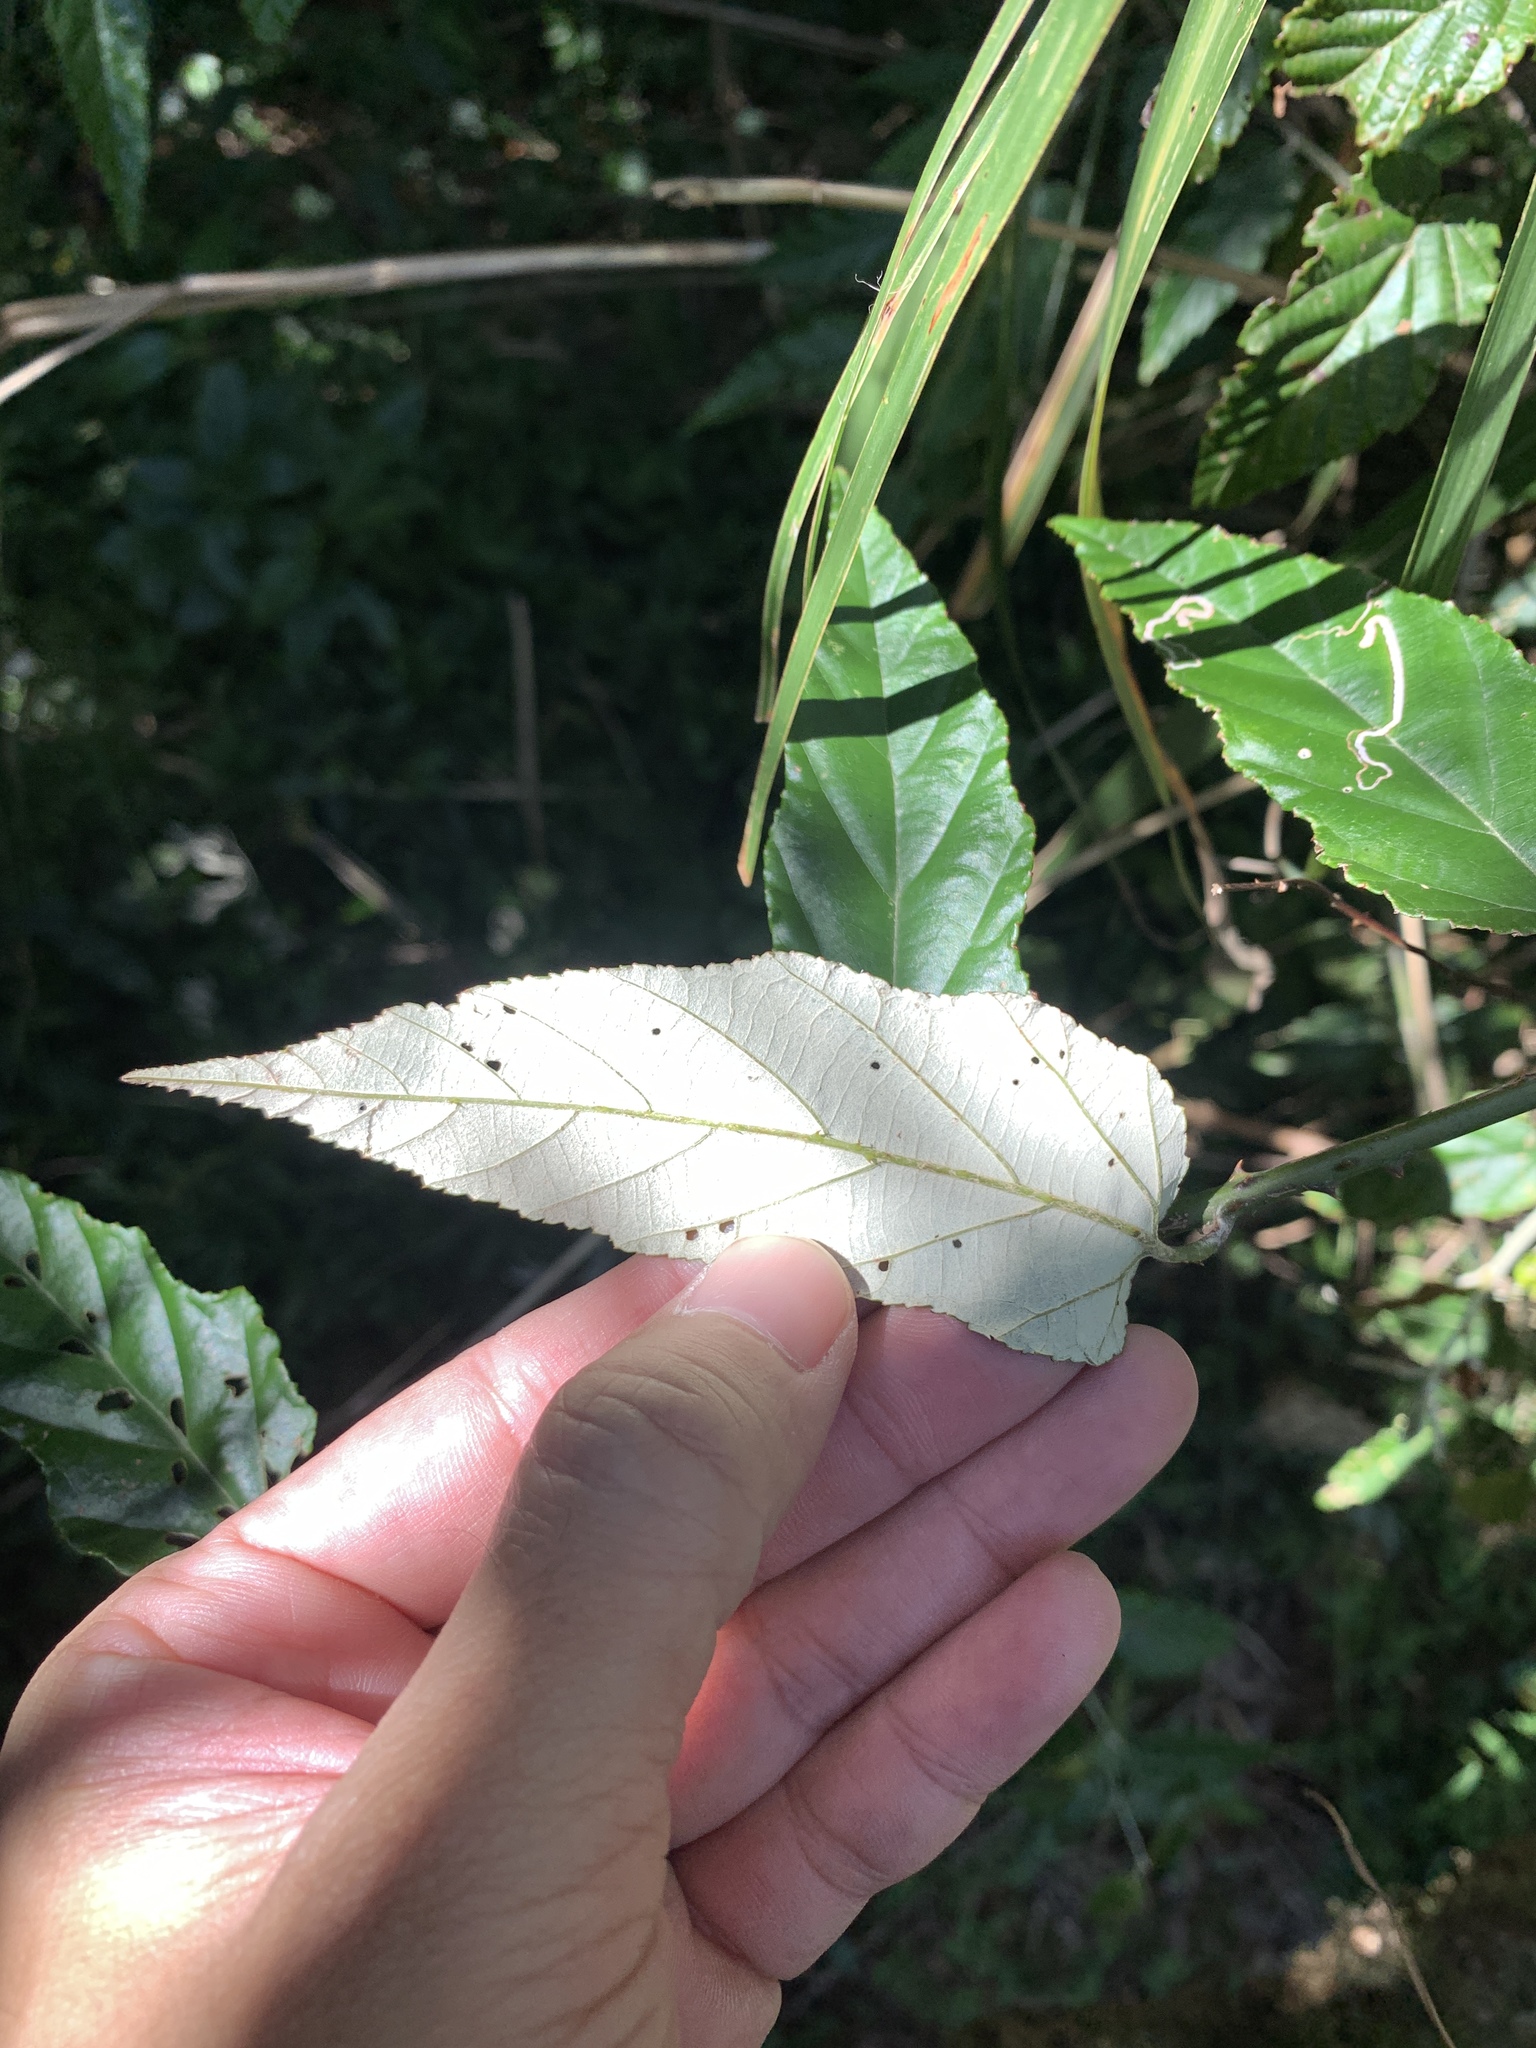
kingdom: Plantae
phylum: Tracheophyta
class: Magnoliopsida
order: Rosales
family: Rosaceae
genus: Rubus
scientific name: Rubus swinhoei
